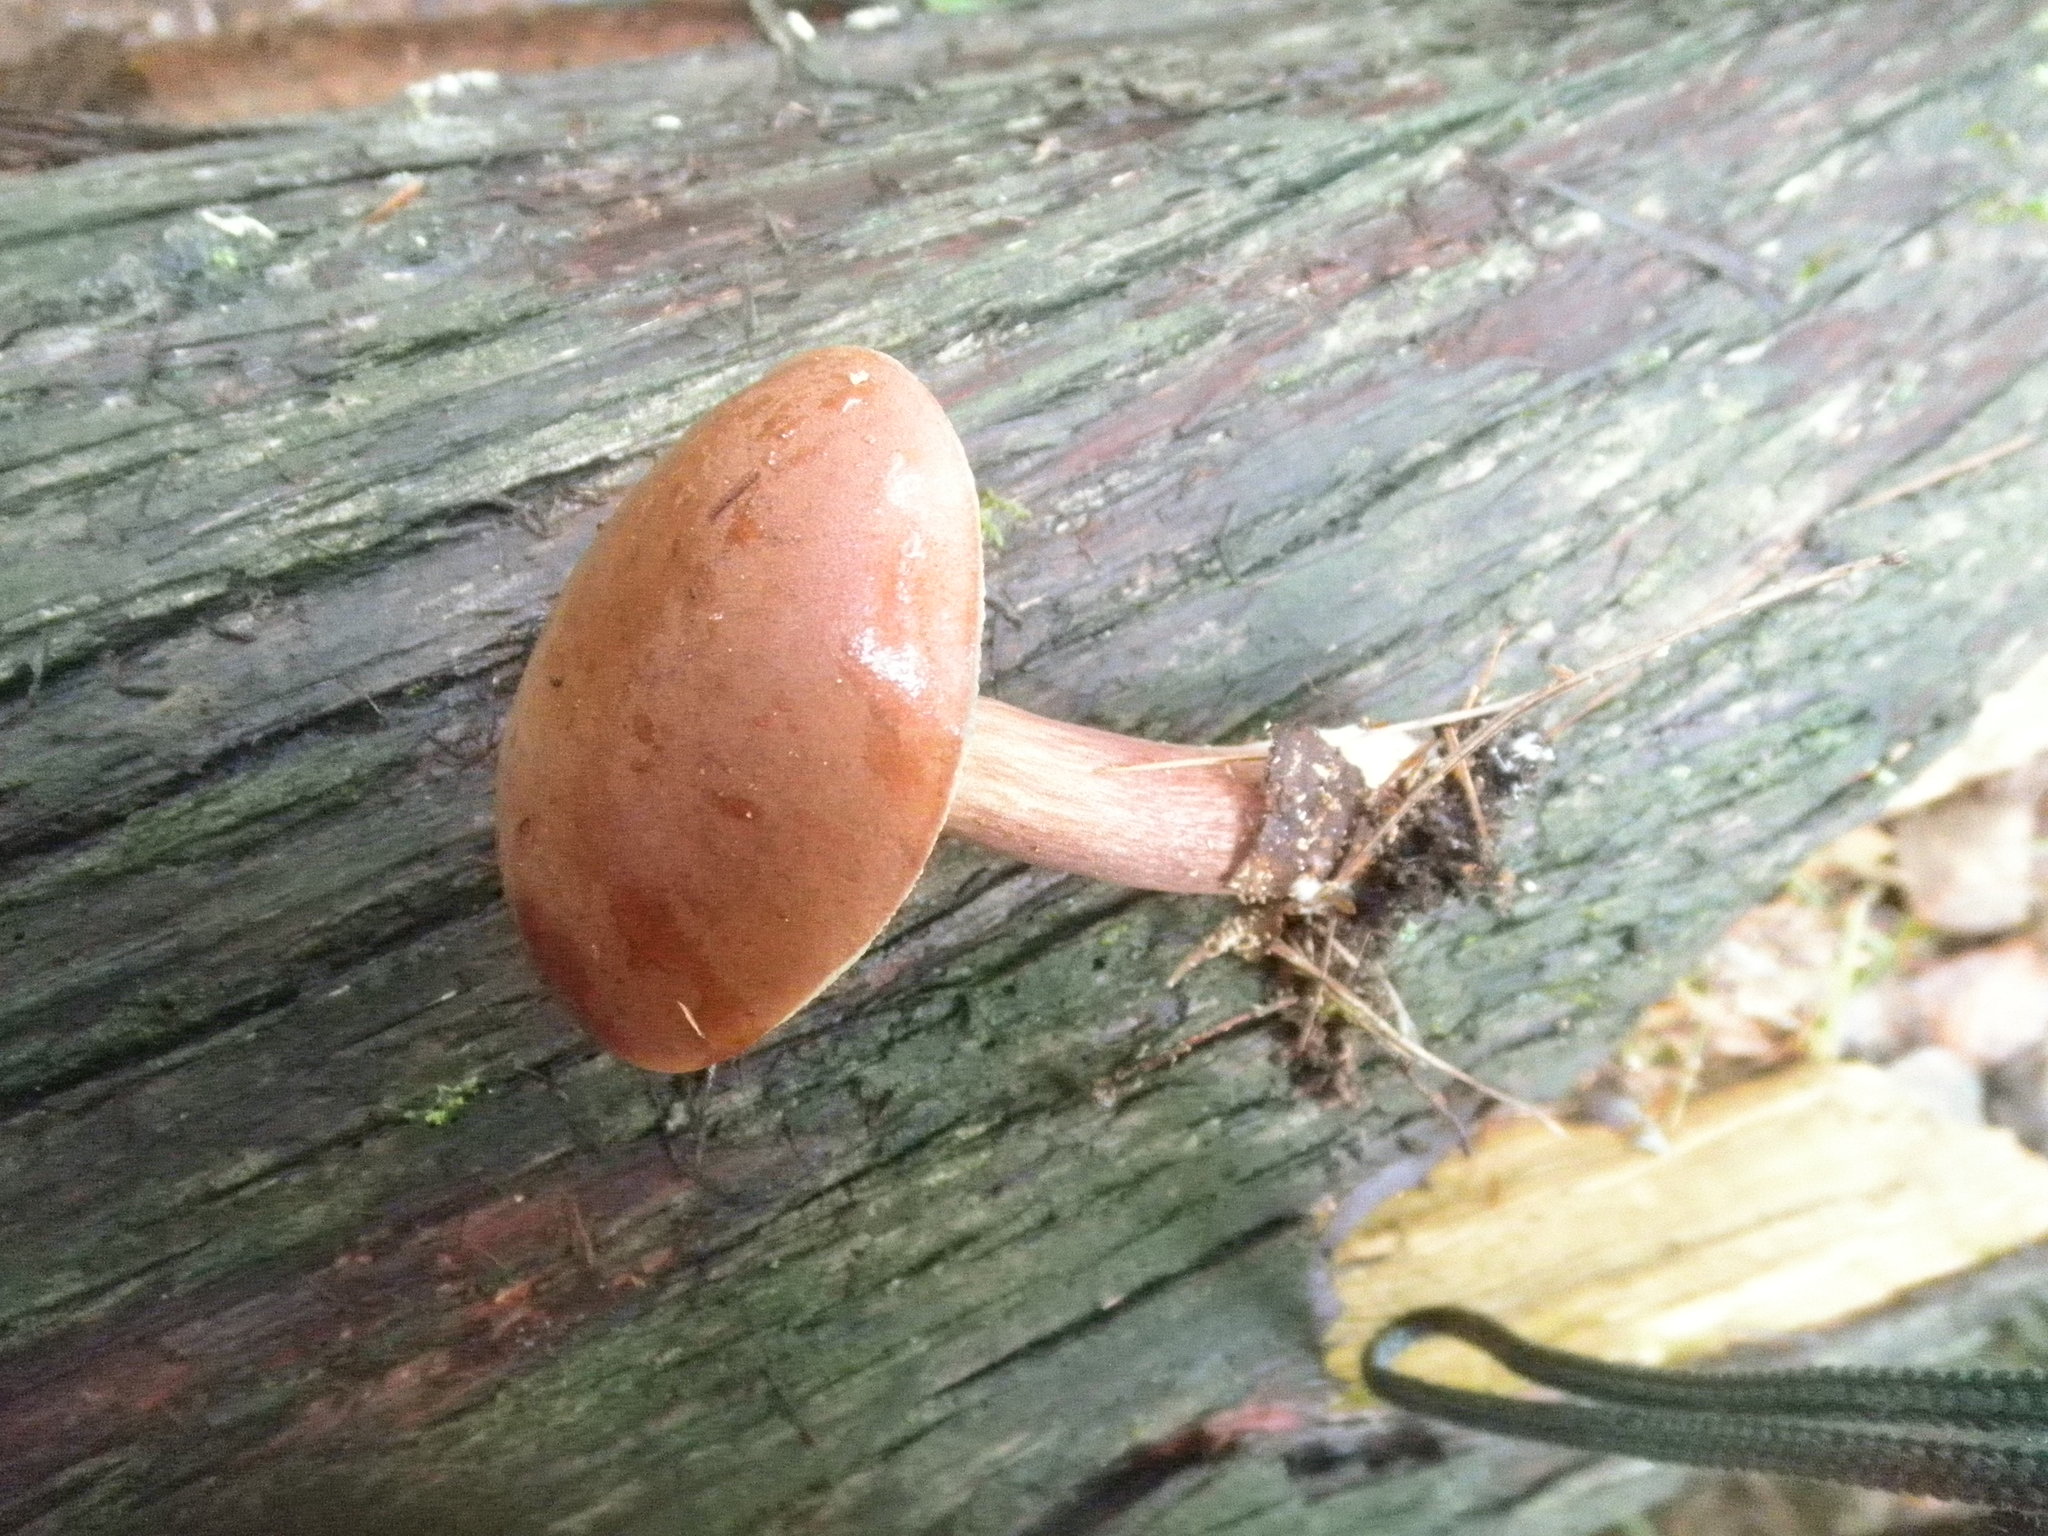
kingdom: Fungi
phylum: Basidiomycota
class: Agaricomycetes
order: Boletales
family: Boletaceae
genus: Imleria
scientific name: Imleria badia
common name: Bay bolete
